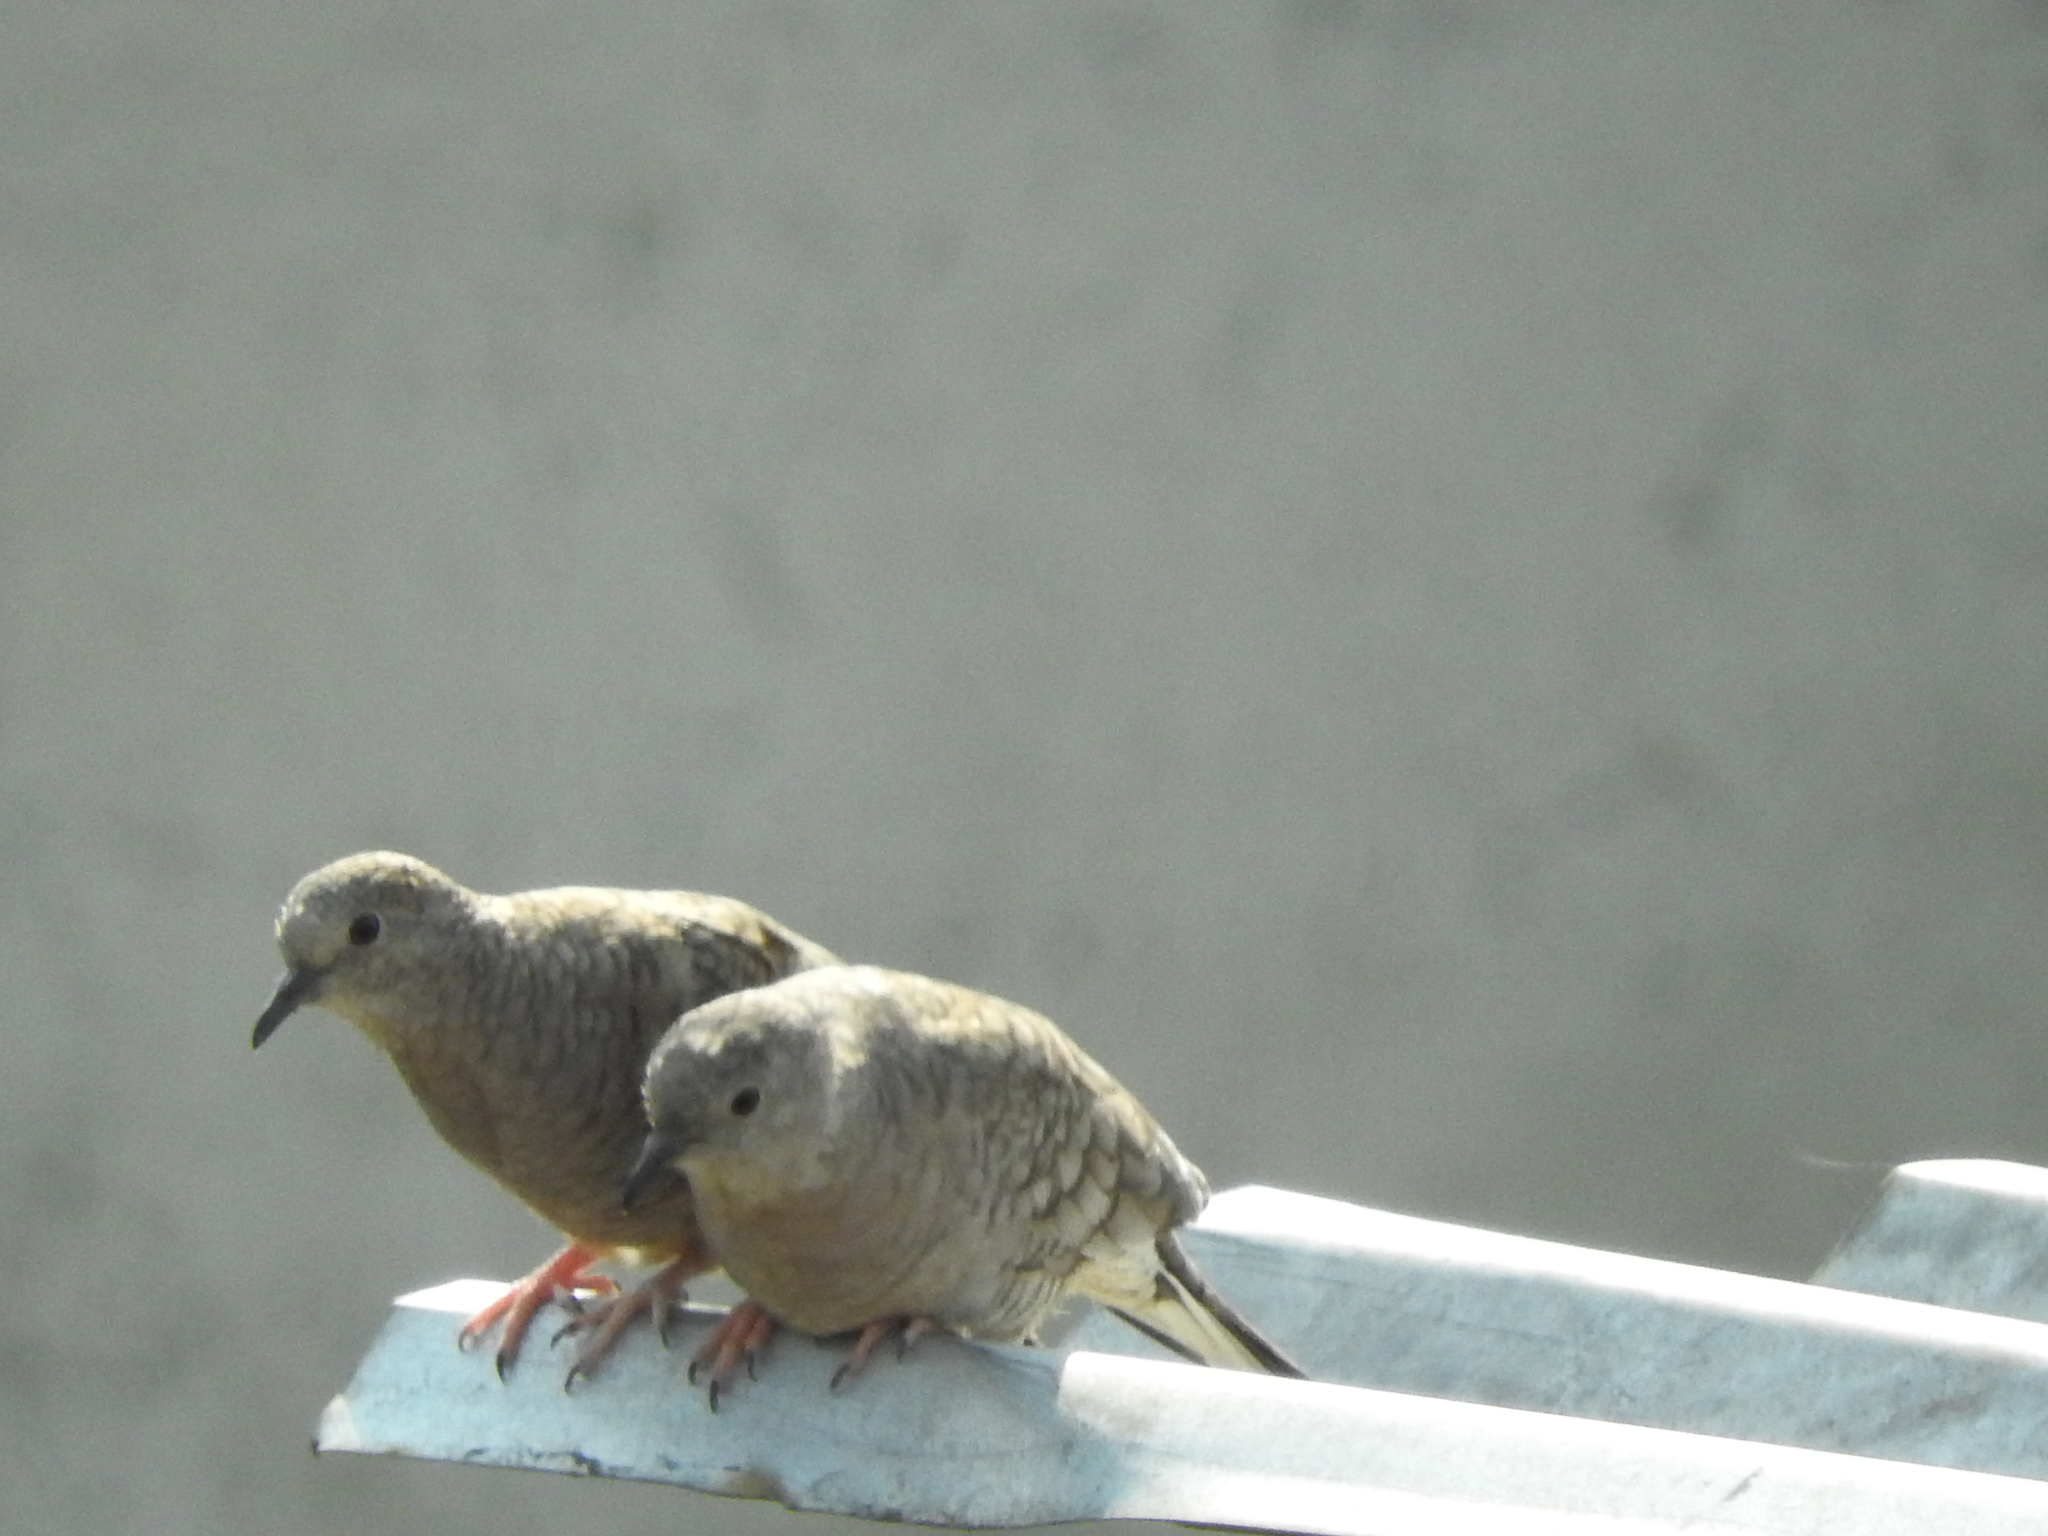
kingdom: Animalia
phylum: Chordata
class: Aves
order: Columbiformes
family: Columbidae
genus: Columbina
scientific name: Columbina inca
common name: Inca dove
